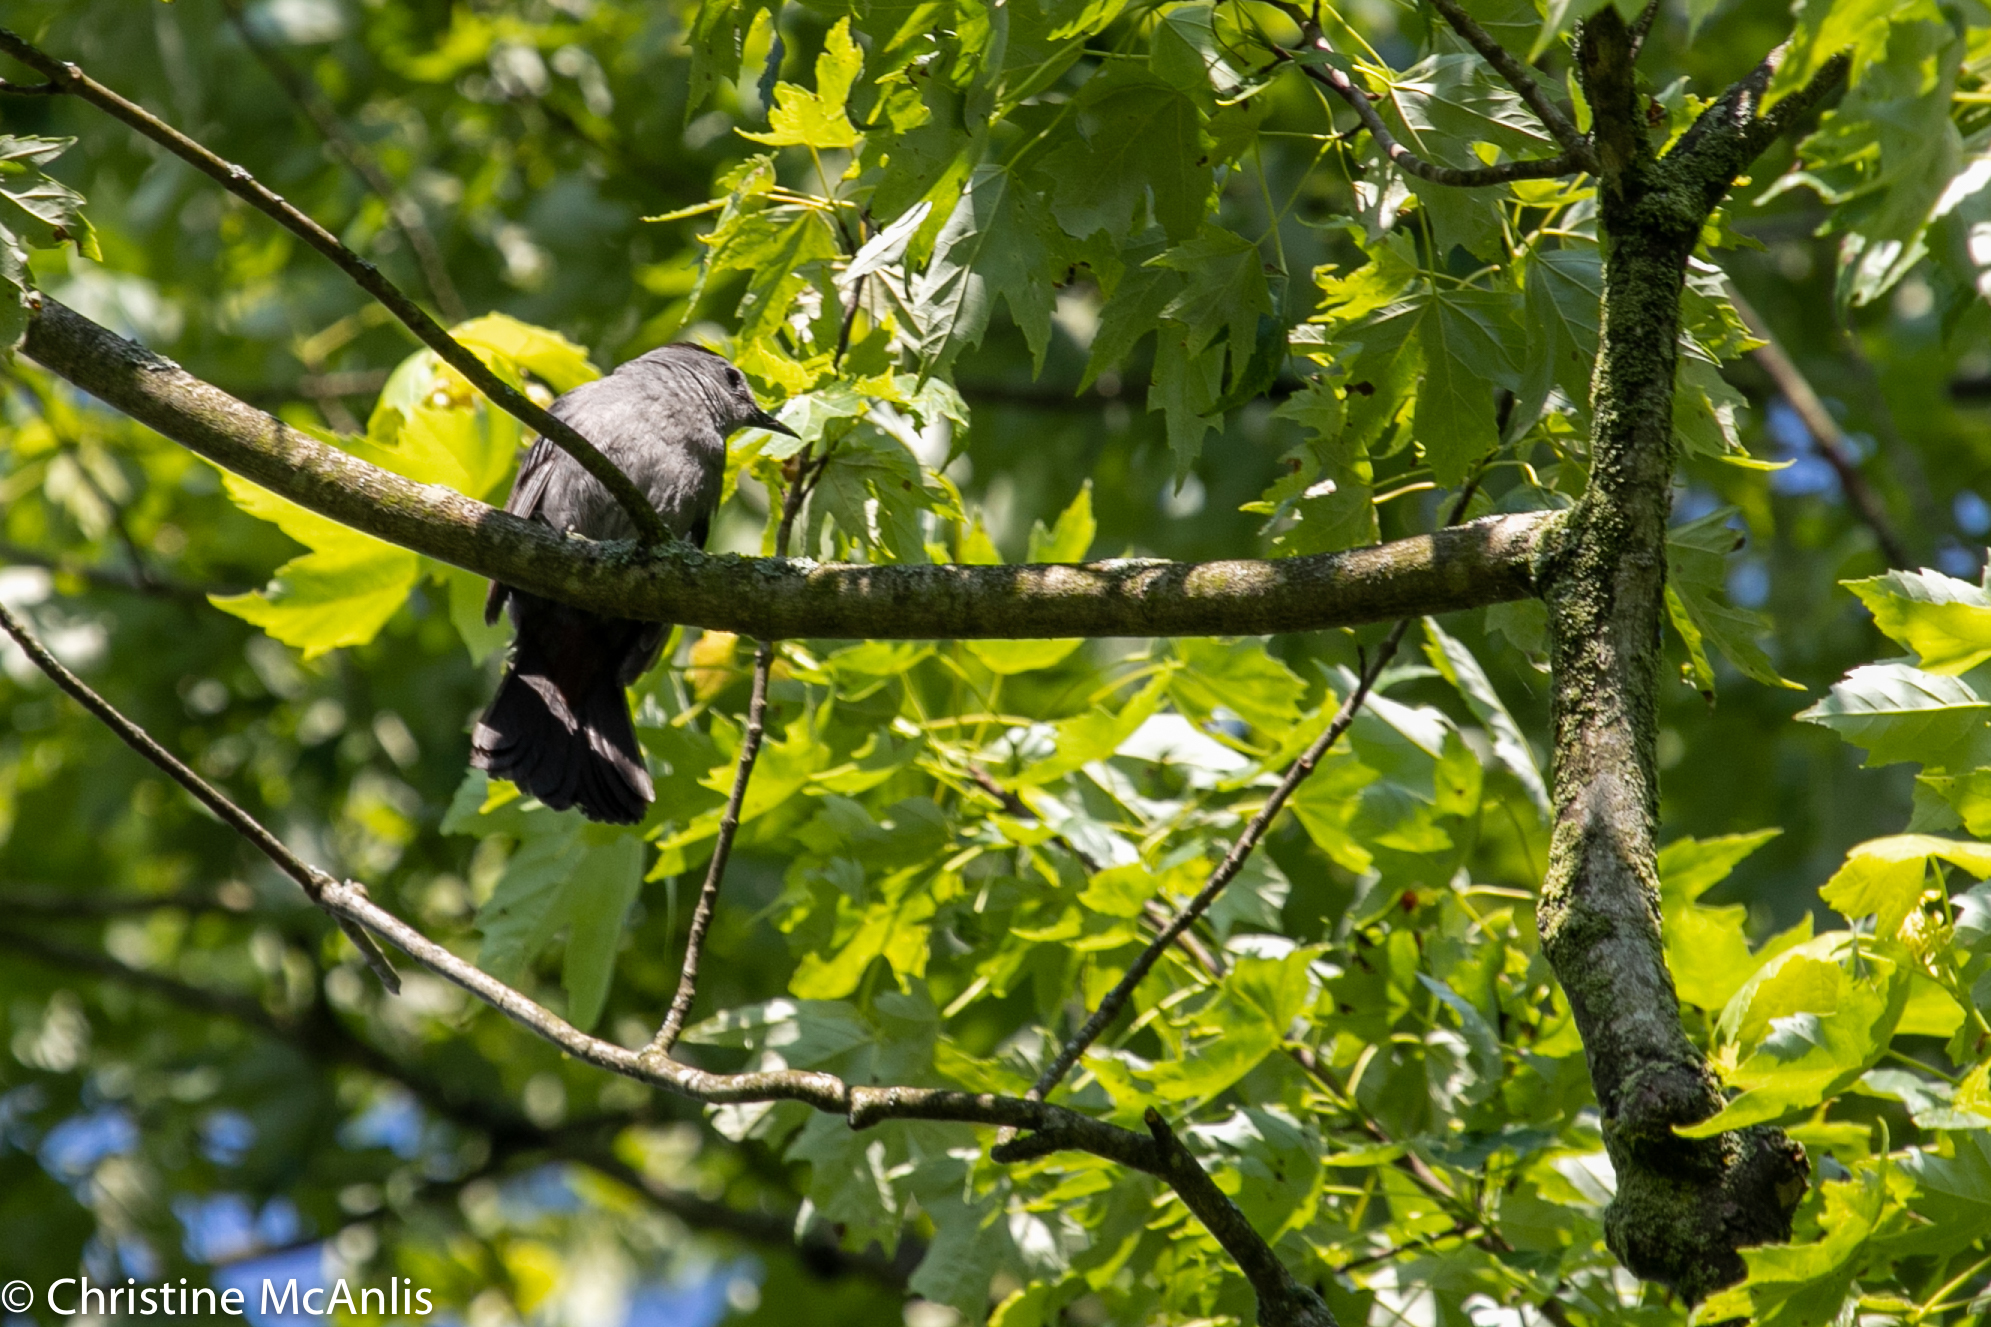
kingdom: Animalia
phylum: Chordata
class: Aves
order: Passeriformes
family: Mimidae
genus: Dumetella
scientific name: Dumetella carolinensis
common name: Gray catbird
